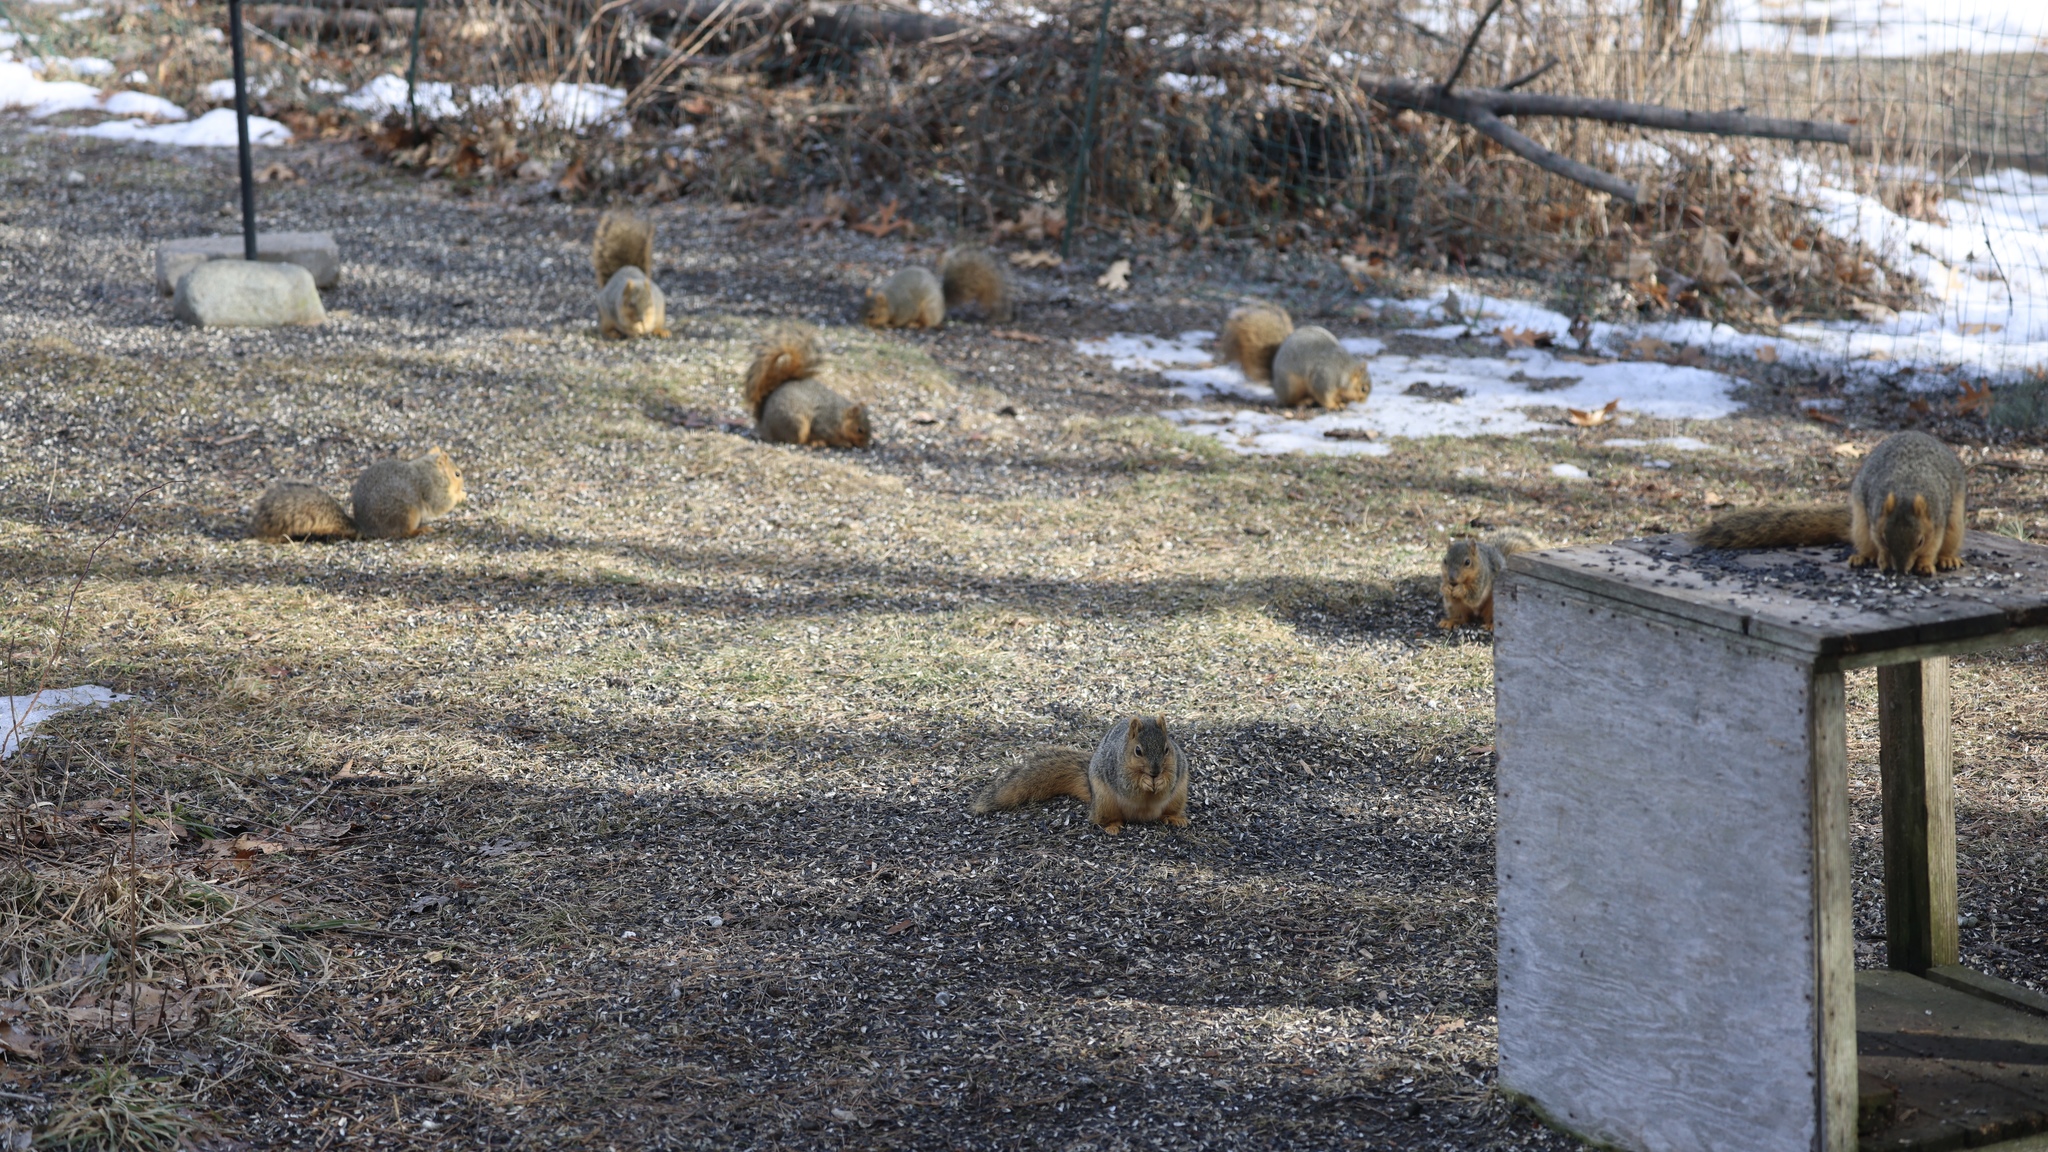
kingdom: Animalia
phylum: Chordata
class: Mammalia
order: Rodentia
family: Sciuridae
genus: Sciurus
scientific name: Sciurus niger
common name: Fox squirrel
